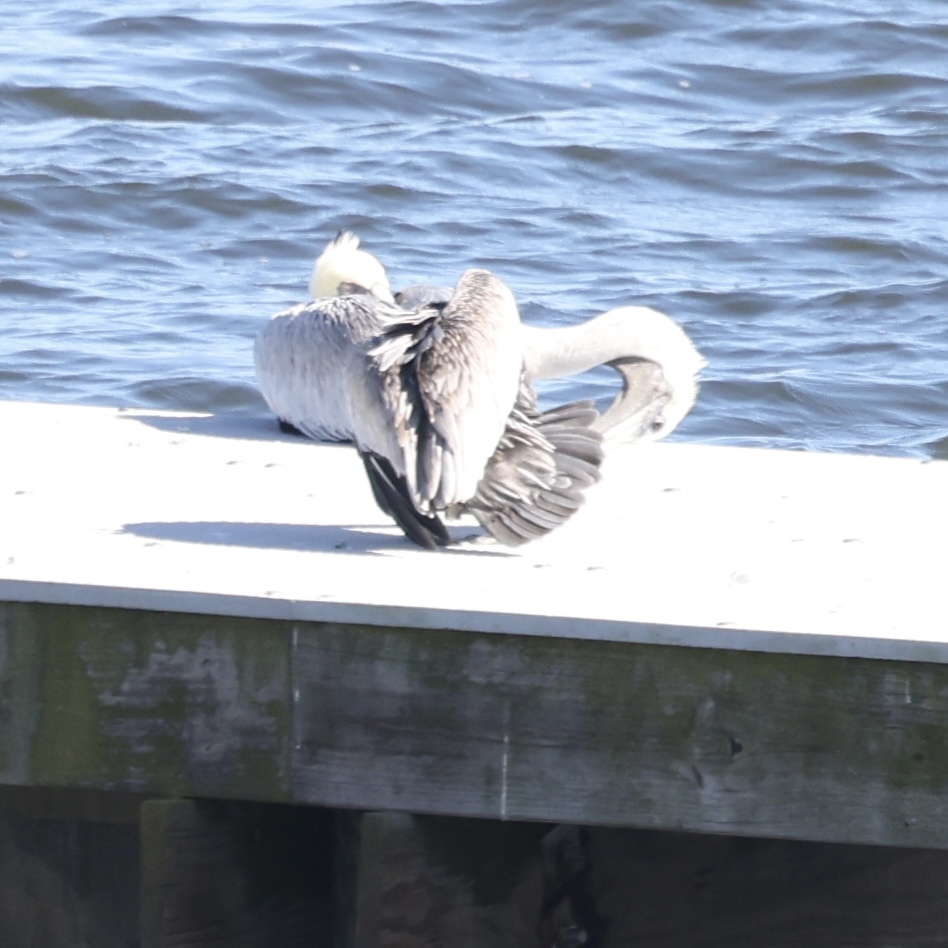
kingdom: Animalia
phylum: Chordata
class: Aves
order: Pelecaniformes
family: Pelecanidae
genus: Pelecanus
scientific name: Pelecanus occidentalis
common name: Brown pelican
